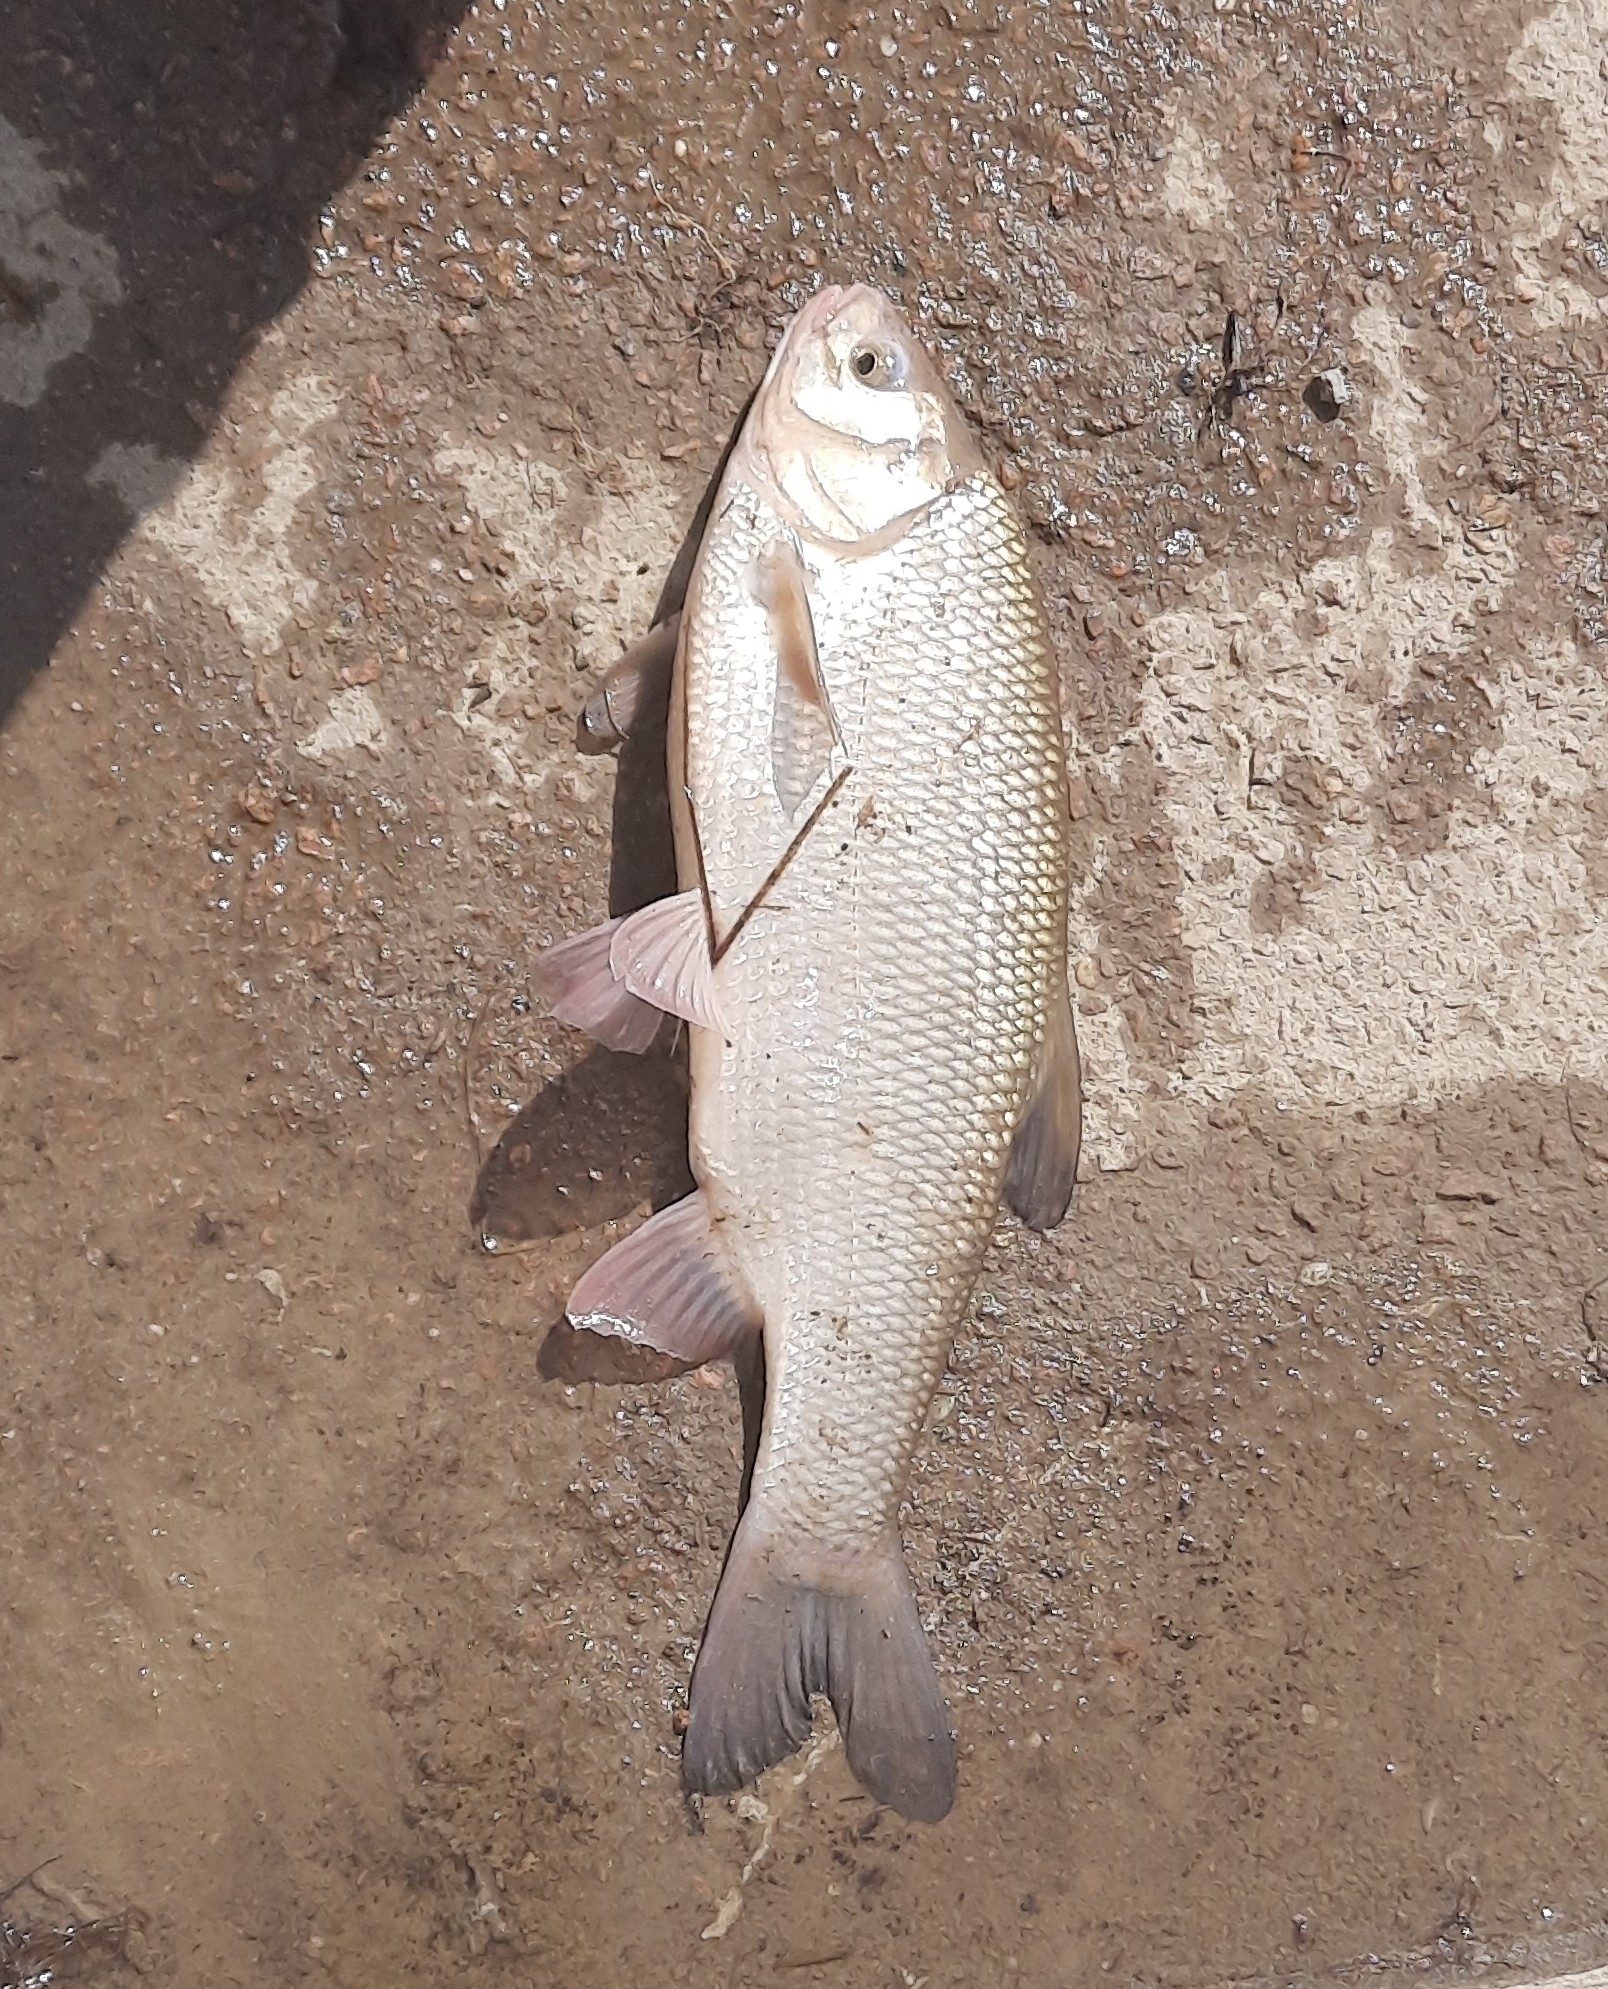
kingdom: Animalia
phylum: Chordata
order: Cypriniformes
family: Cyprinidae
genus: Leuciscus
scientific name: Leuciscus idus
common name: Ide
